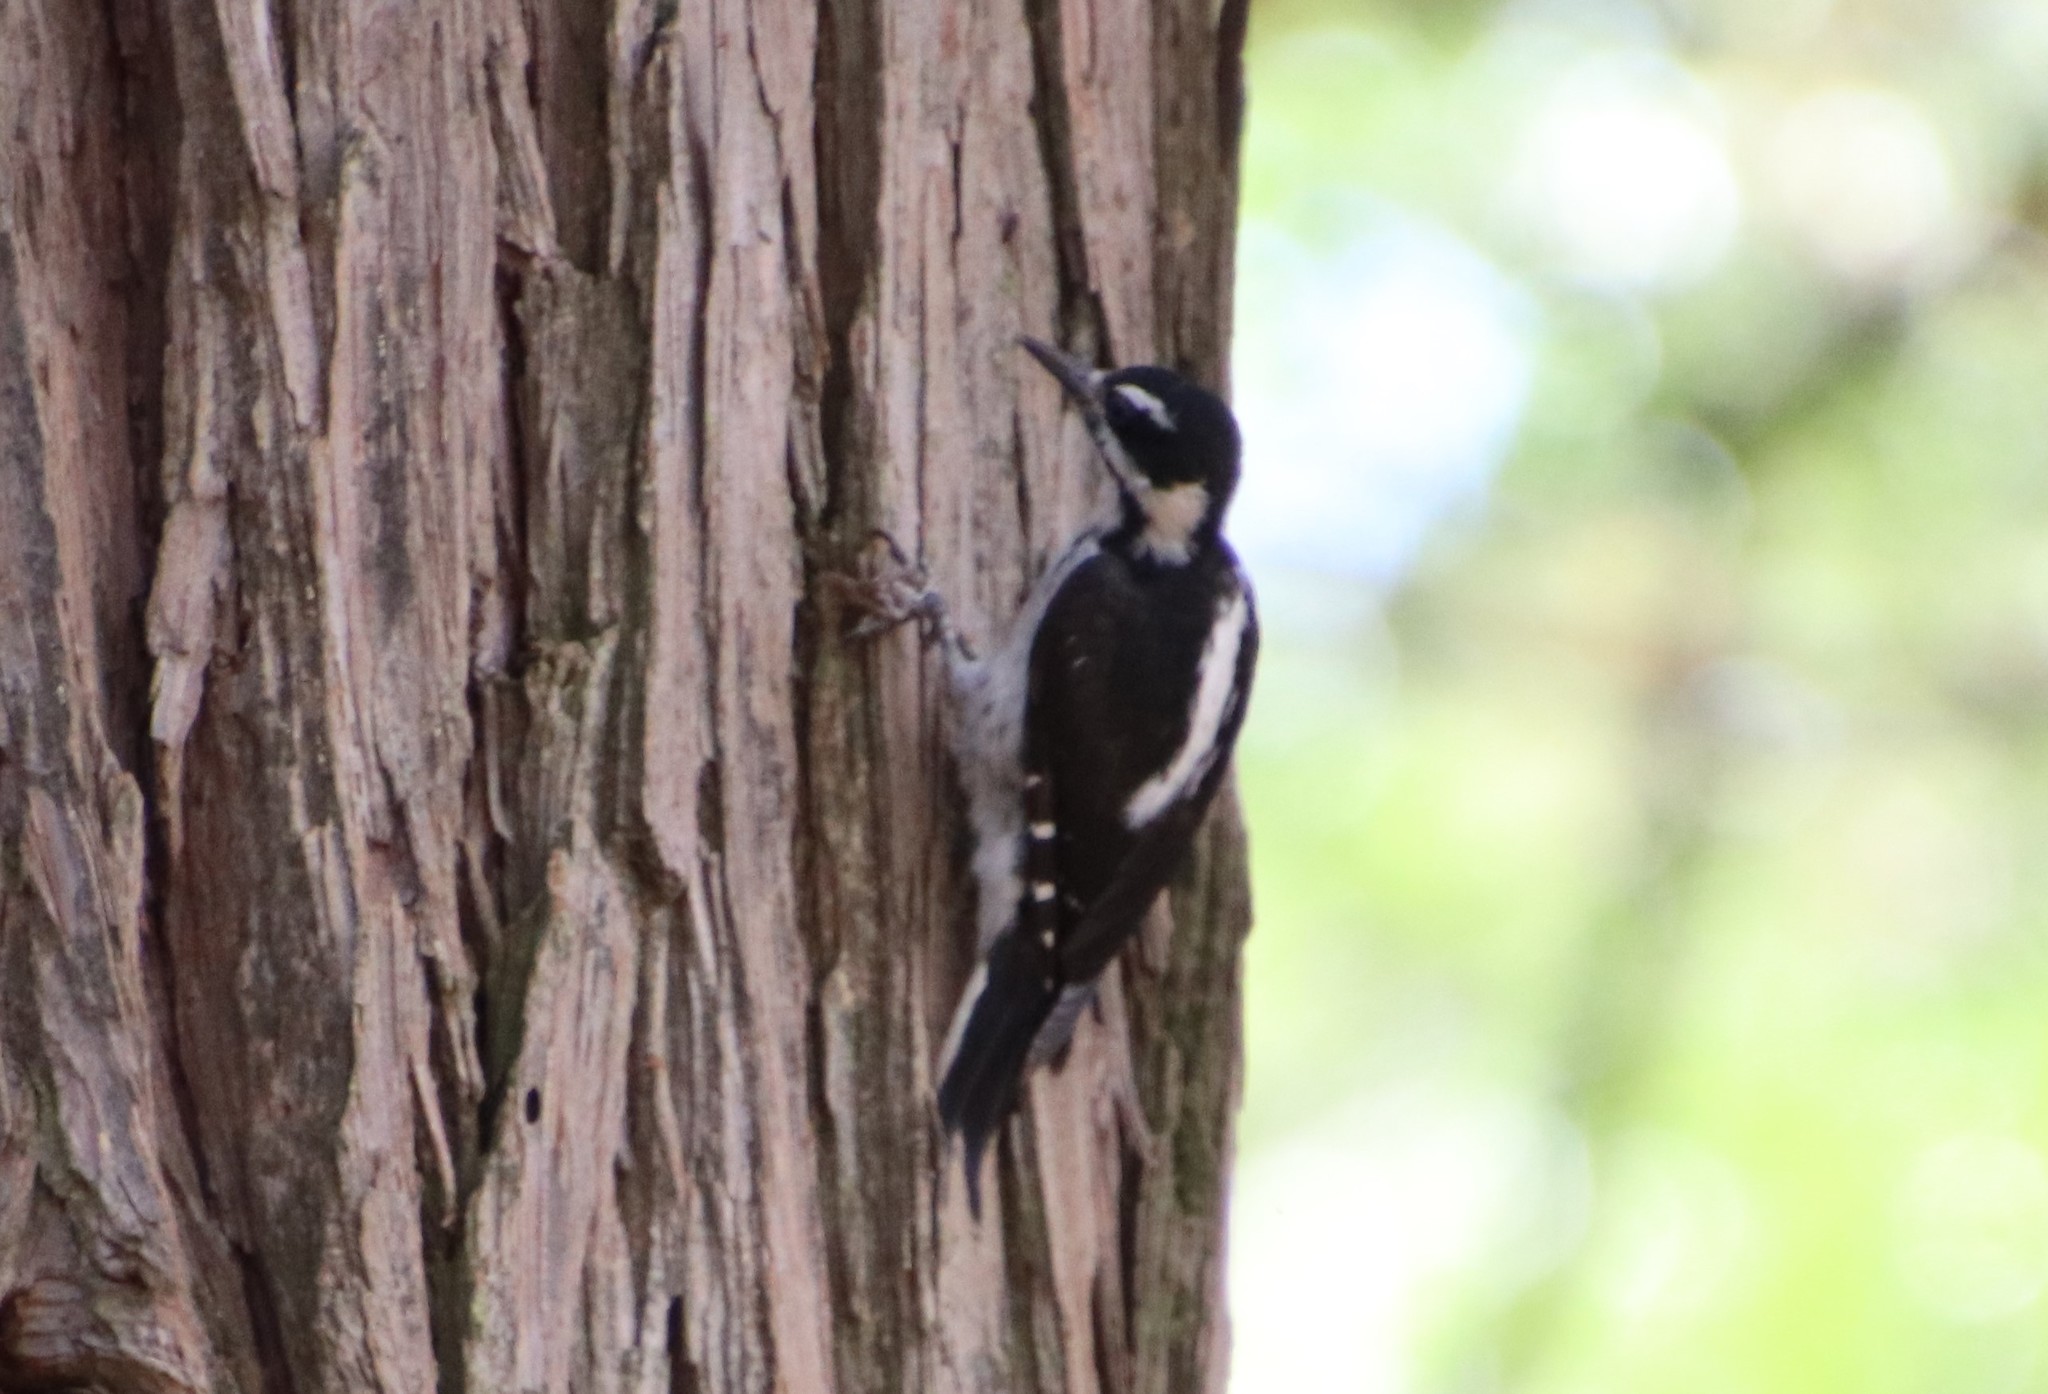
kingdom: Animalia
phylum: Chordata
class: Aves
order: Piciformes
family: Picidae
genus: Leuconotopicus
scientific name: Leuconotopicus villosus
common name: Hairy woodpecker
